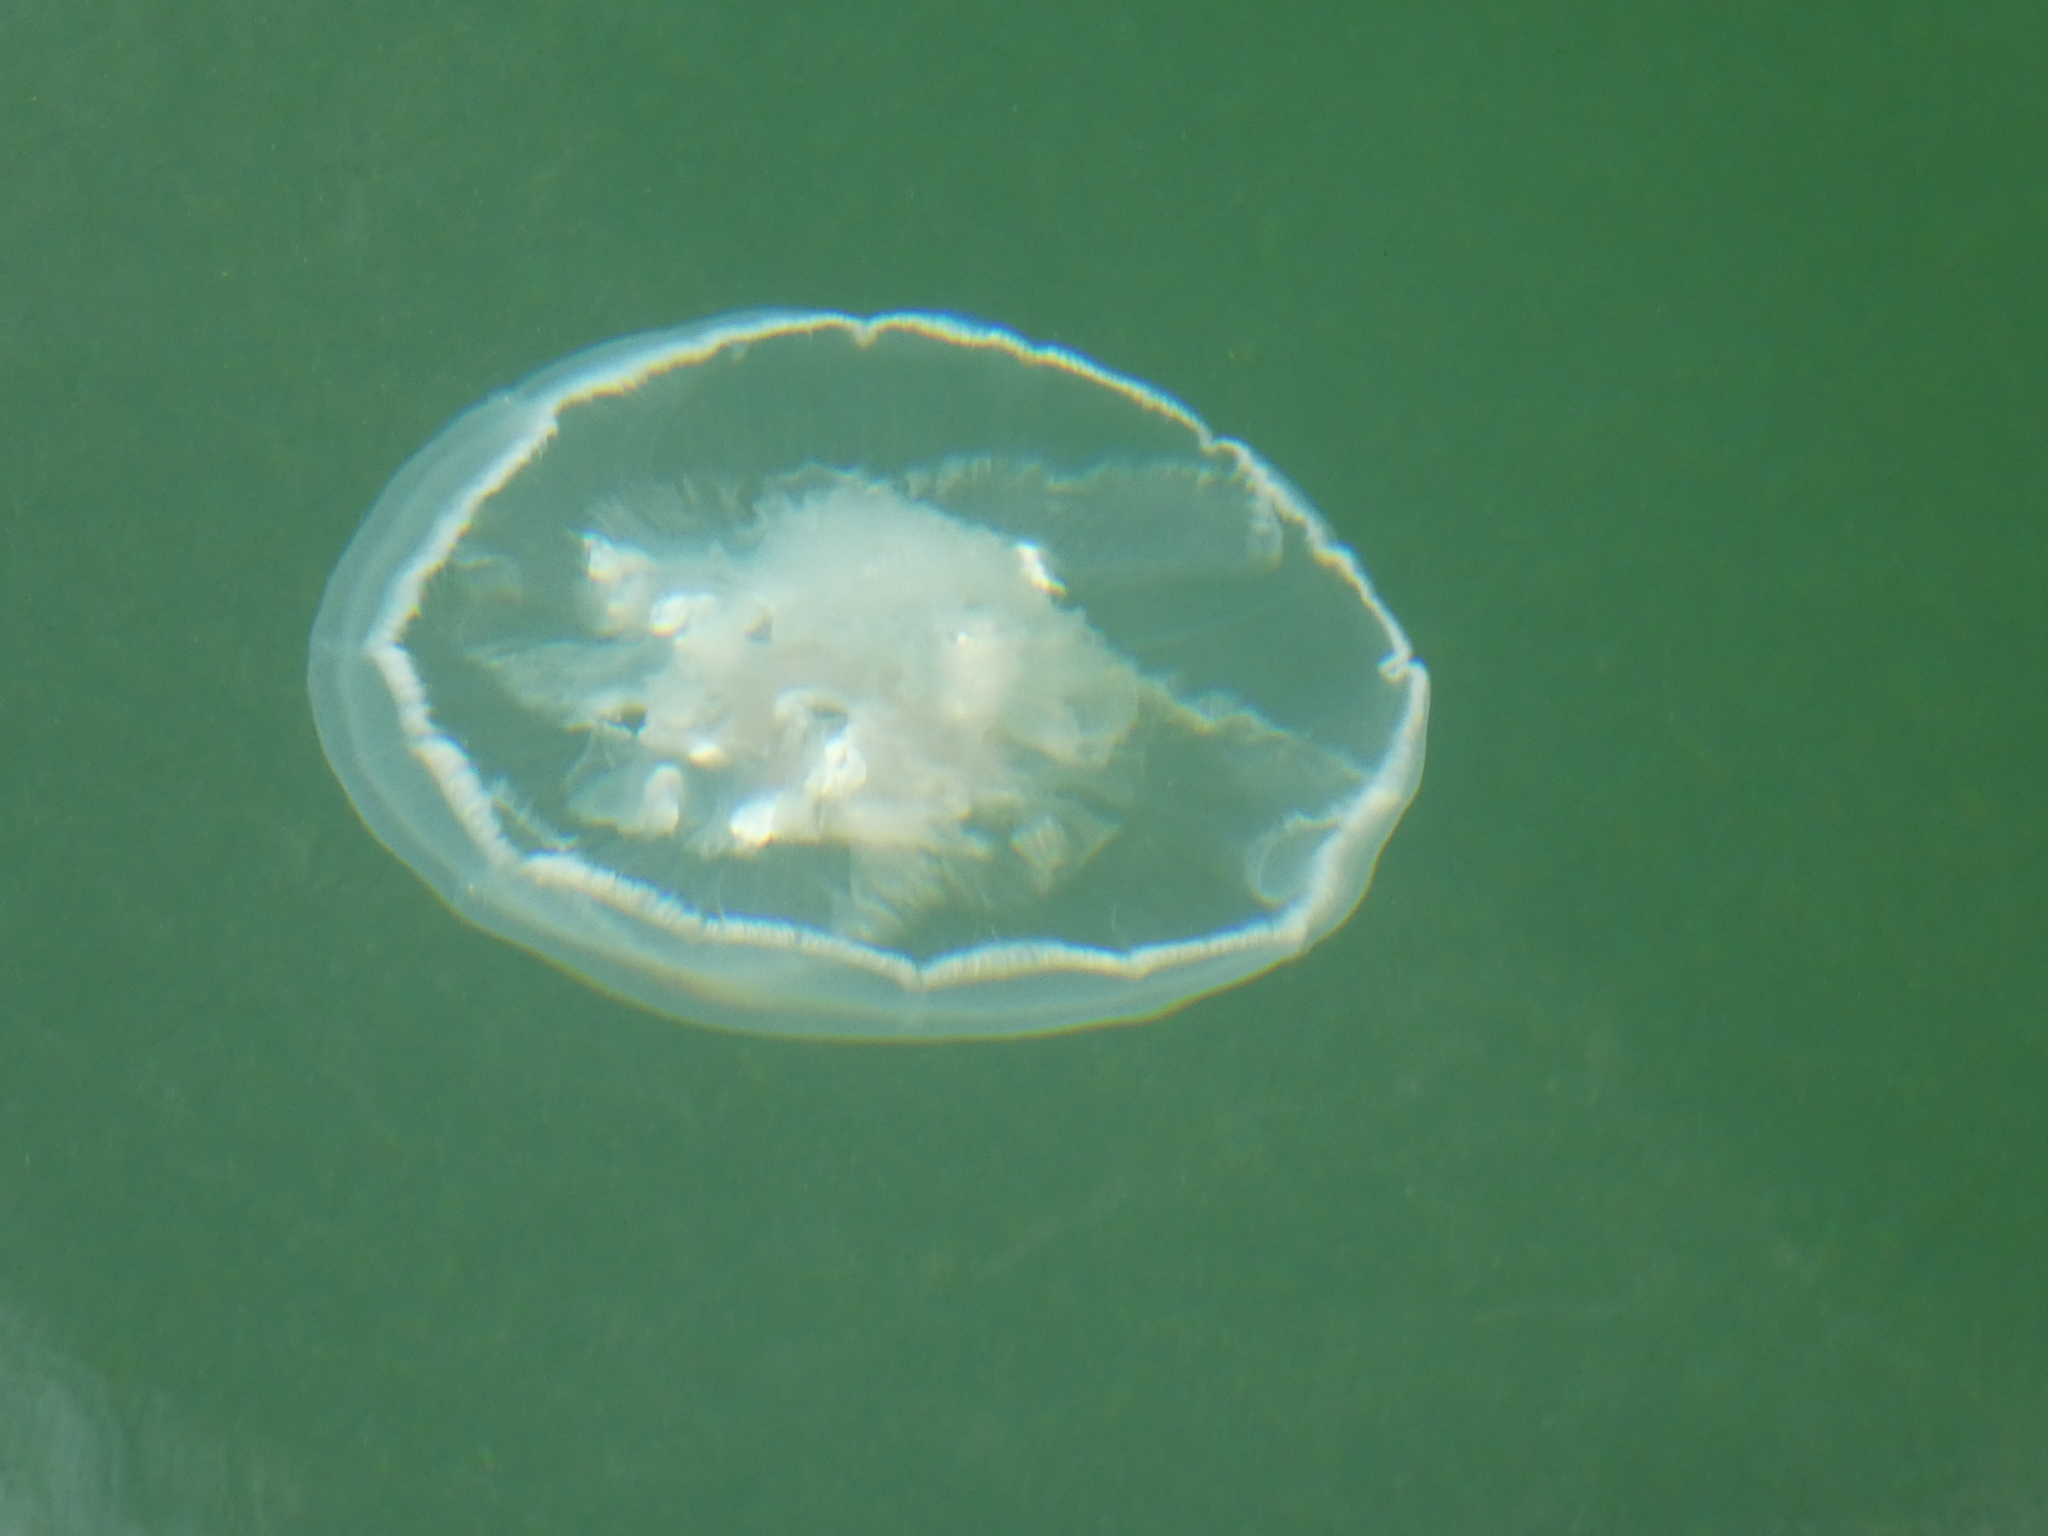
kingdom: Animalia
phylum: Cnidaria
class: Scyphozoa
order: Semaeostomeae
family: Ulmaridae
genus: Aurelia
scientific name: Aurelia labiata
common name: Pacific moon jelly
